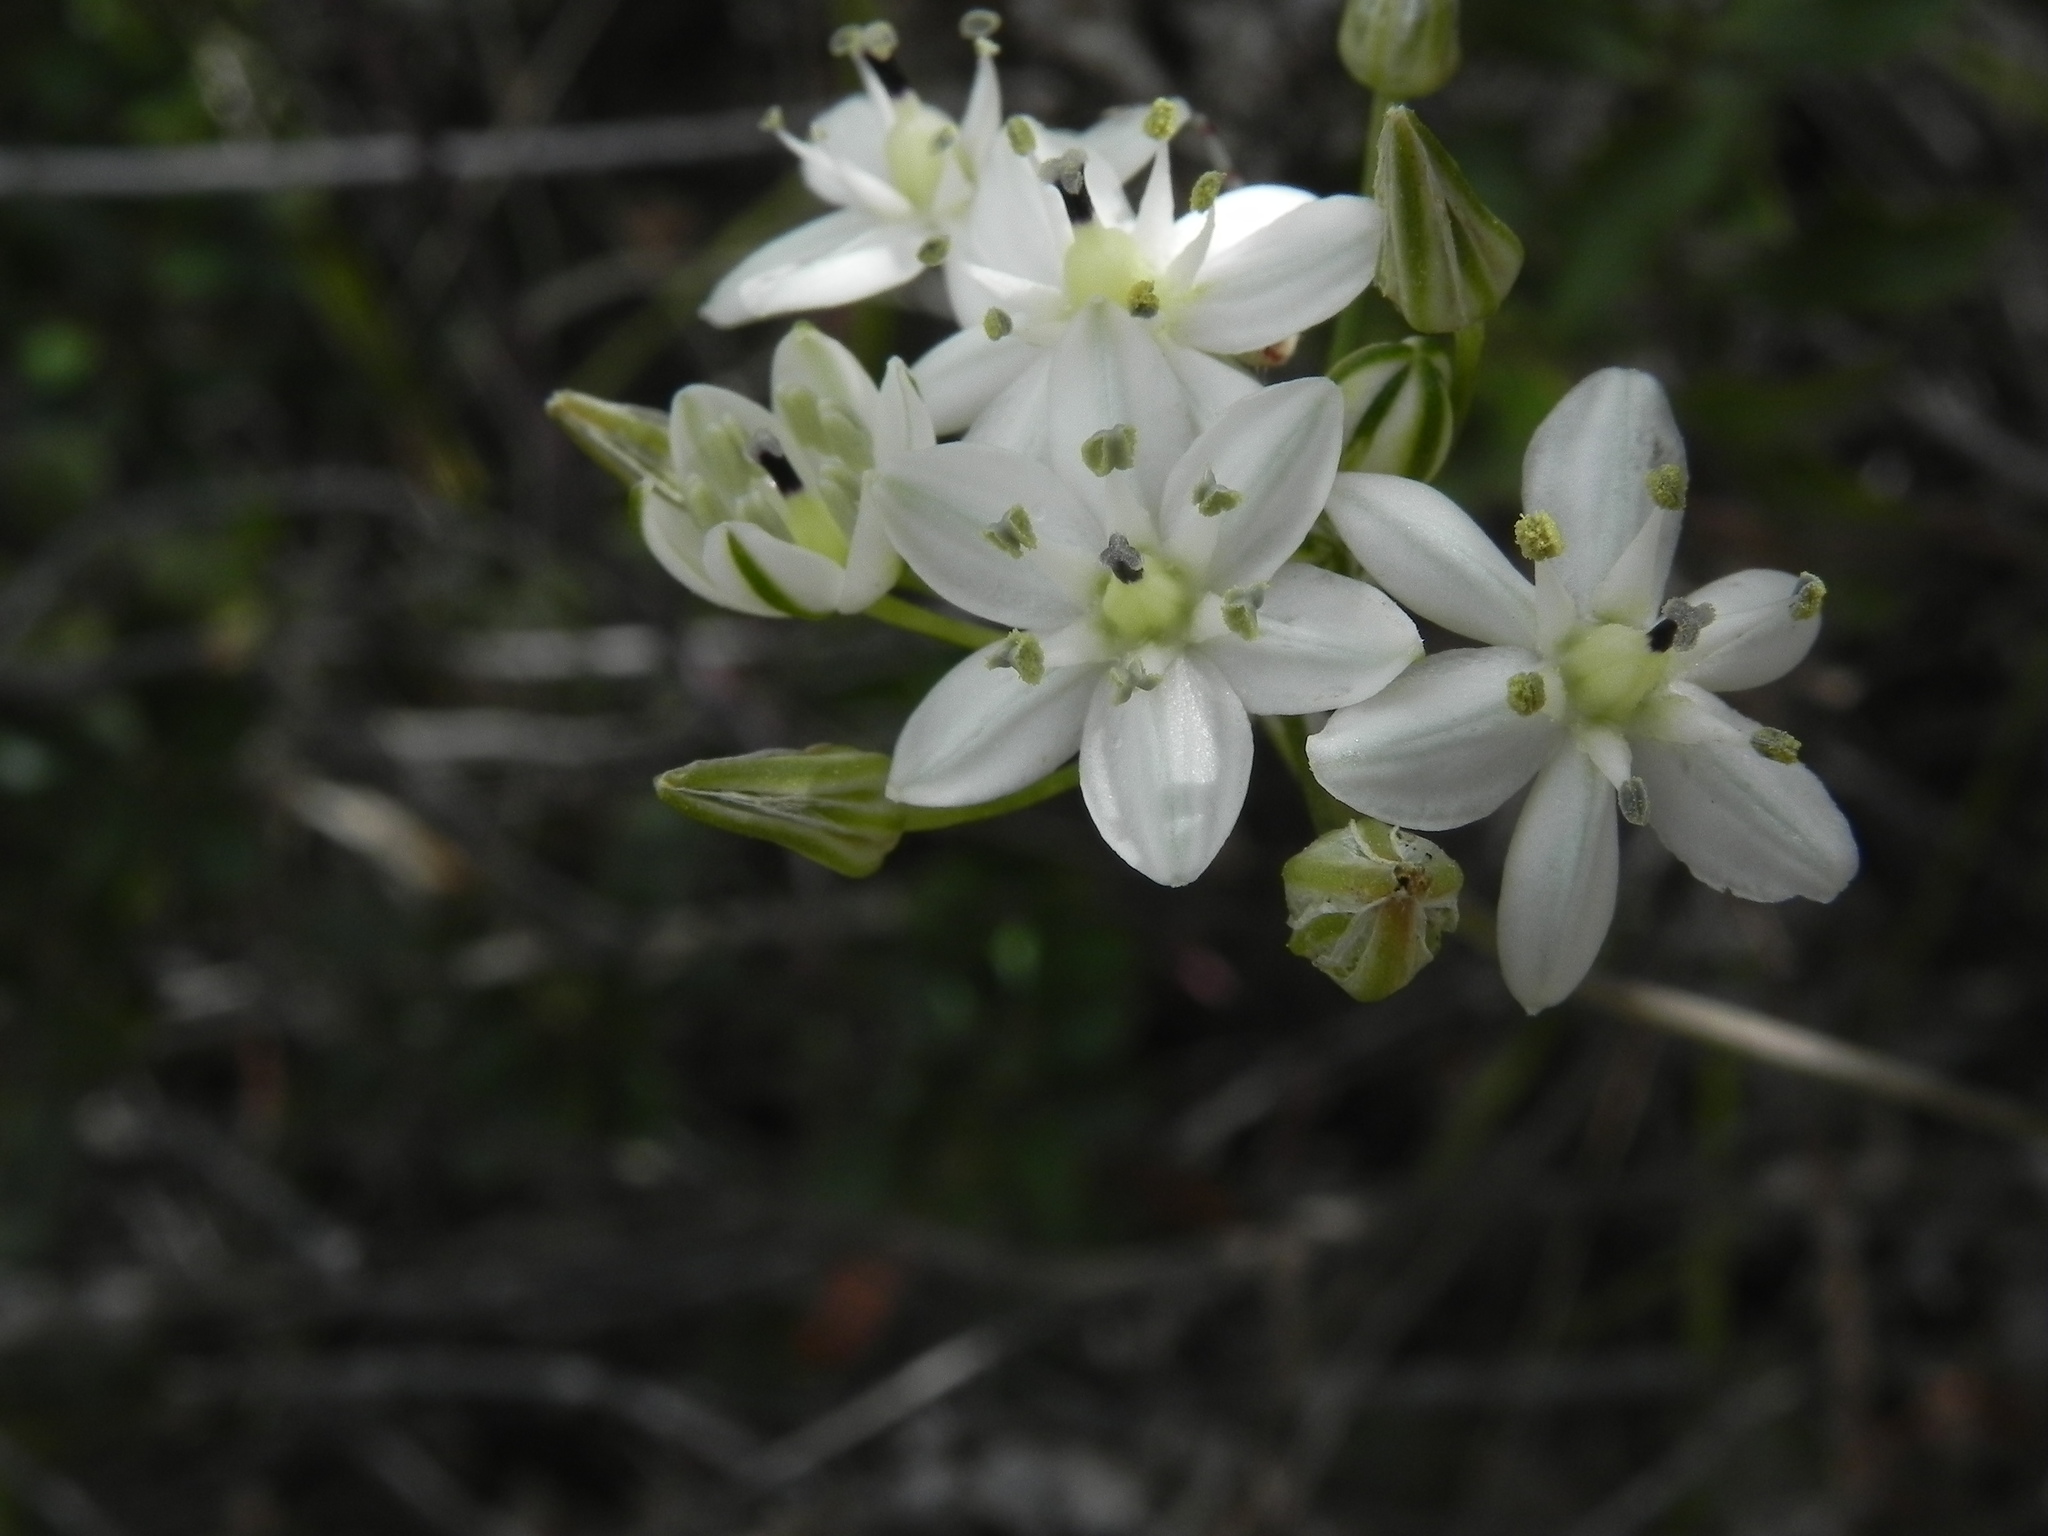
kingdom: Plantae
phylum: Tracheophyta
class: Liliopsida
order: Asparagales
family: Asparagaceae
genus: Muilla
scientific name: Muilla maritima
